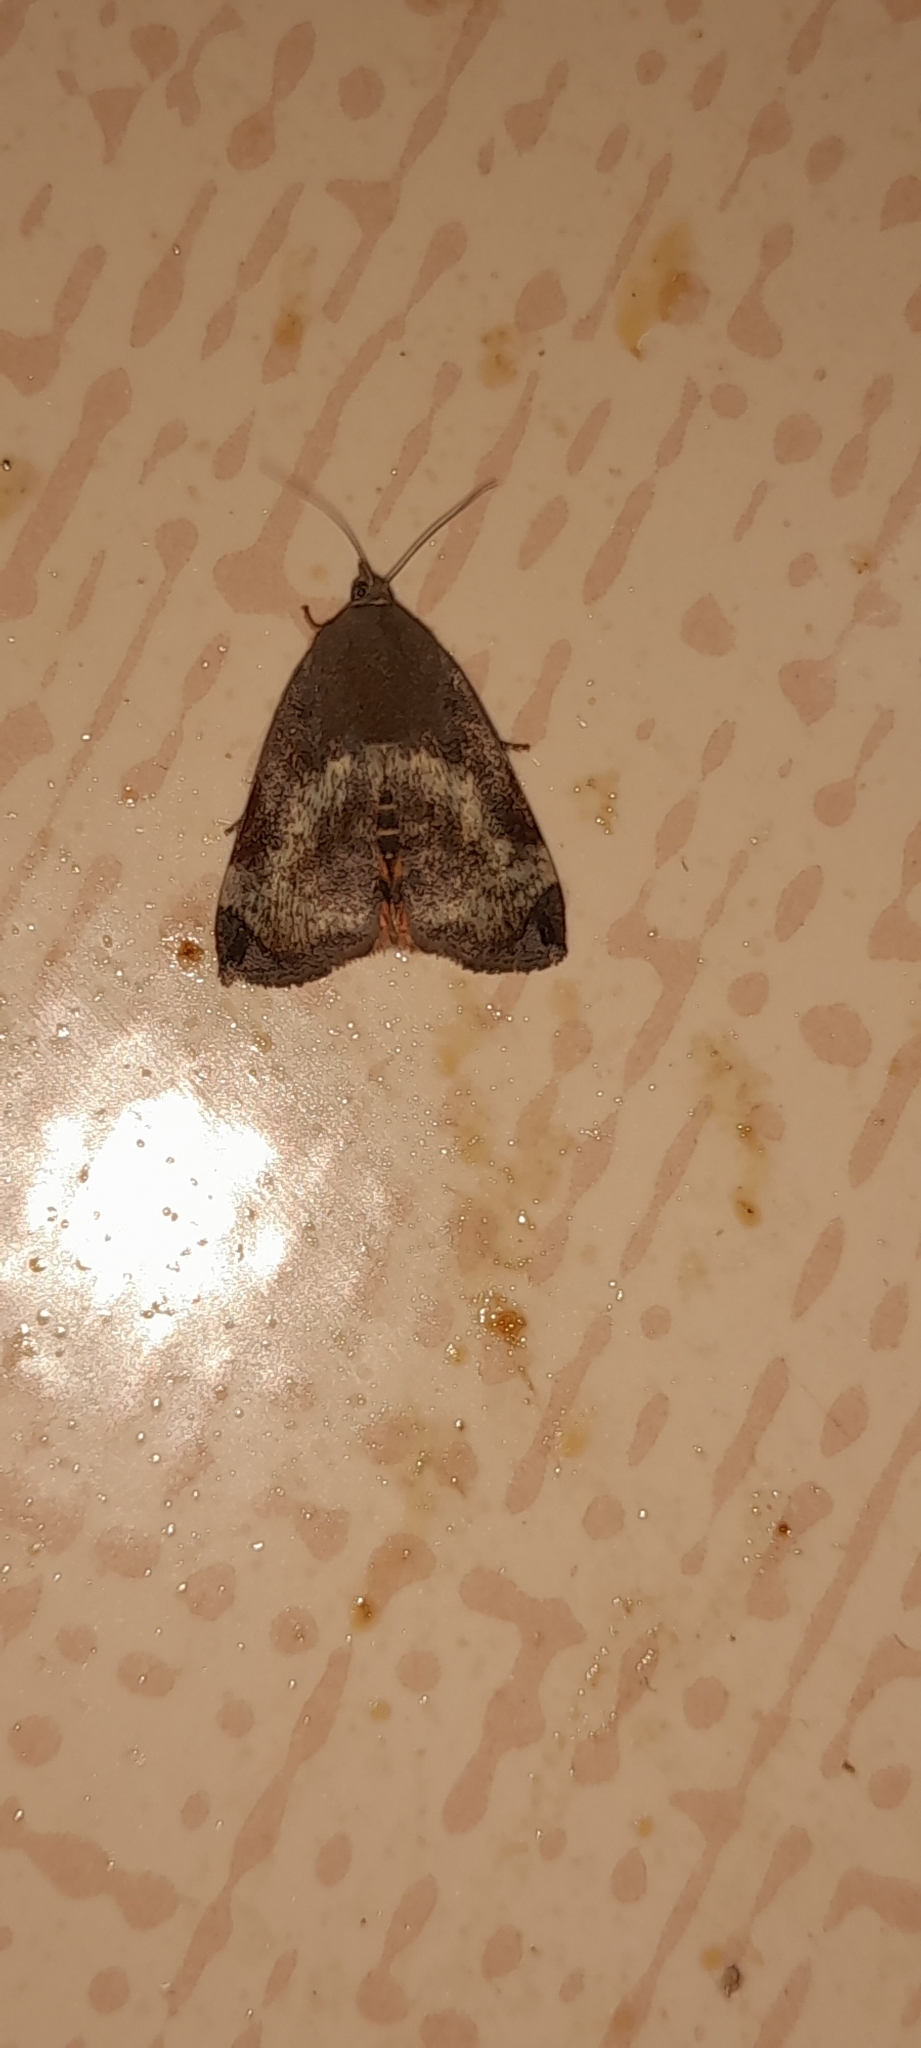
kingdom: Animalia
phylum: Arthropoda
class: Insecta
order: Lepidoptera
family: Hyblaeidae
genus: Hyblaea
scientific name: Hyblaea puera
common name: Teak defoliator moth
